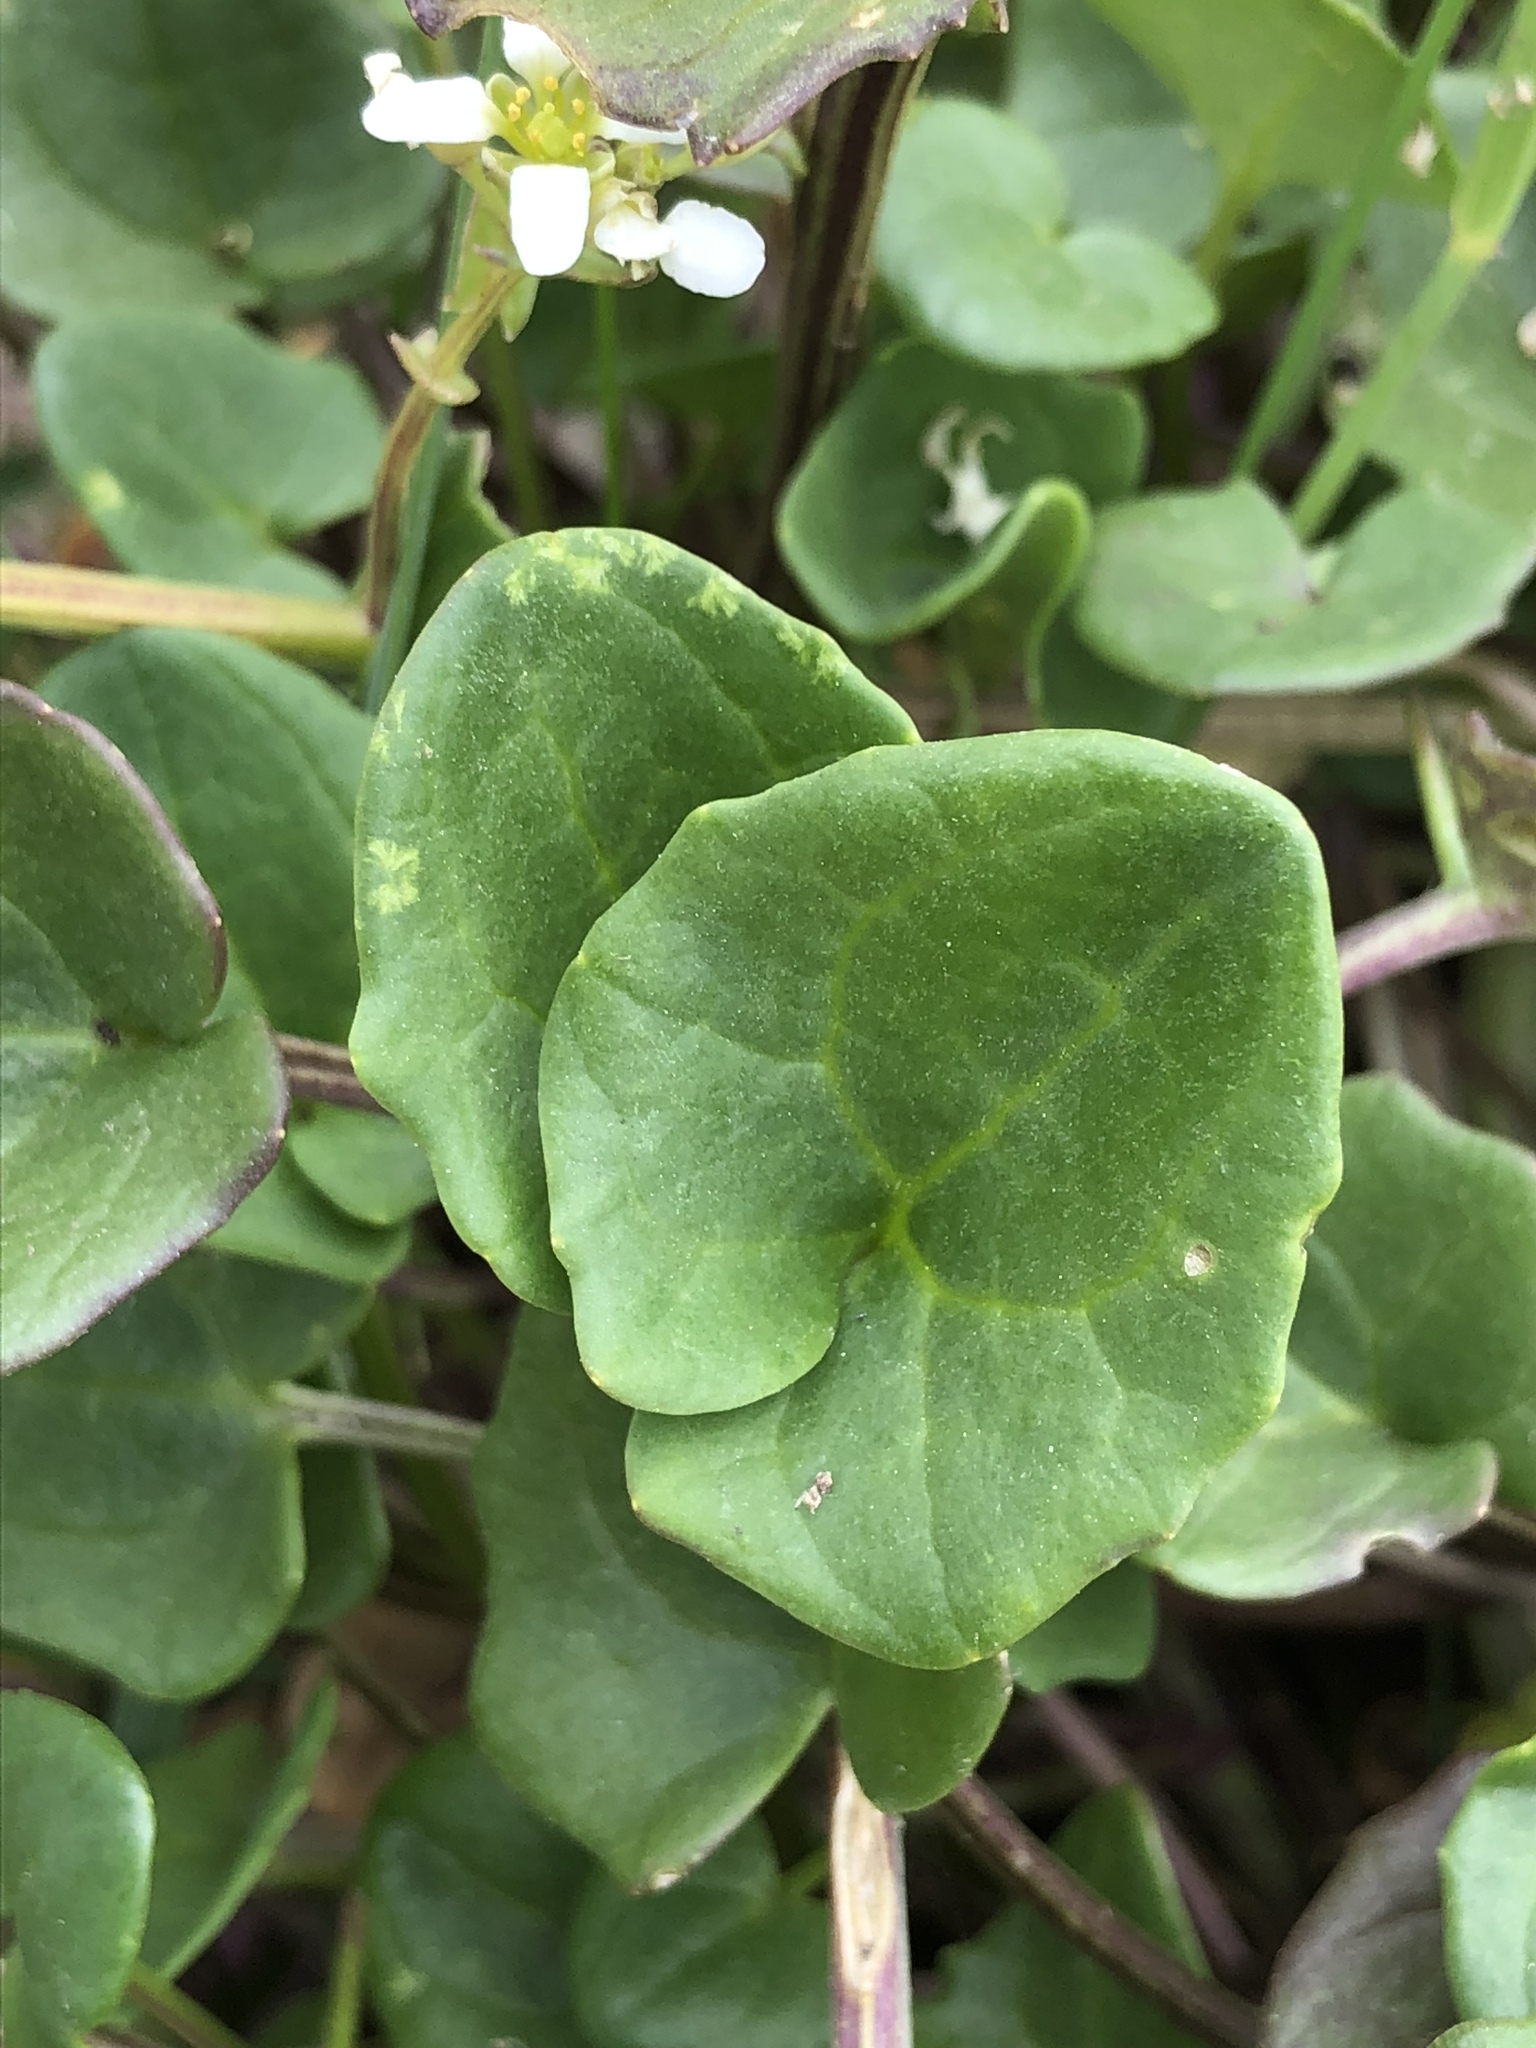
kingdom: Plantae
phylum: Tracheophyta
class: Magnoliopsida
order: Brassicales
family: Brassicaceae
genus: Cochlearia
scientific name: Cochlearia officinalis
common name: Scurvy-grass
